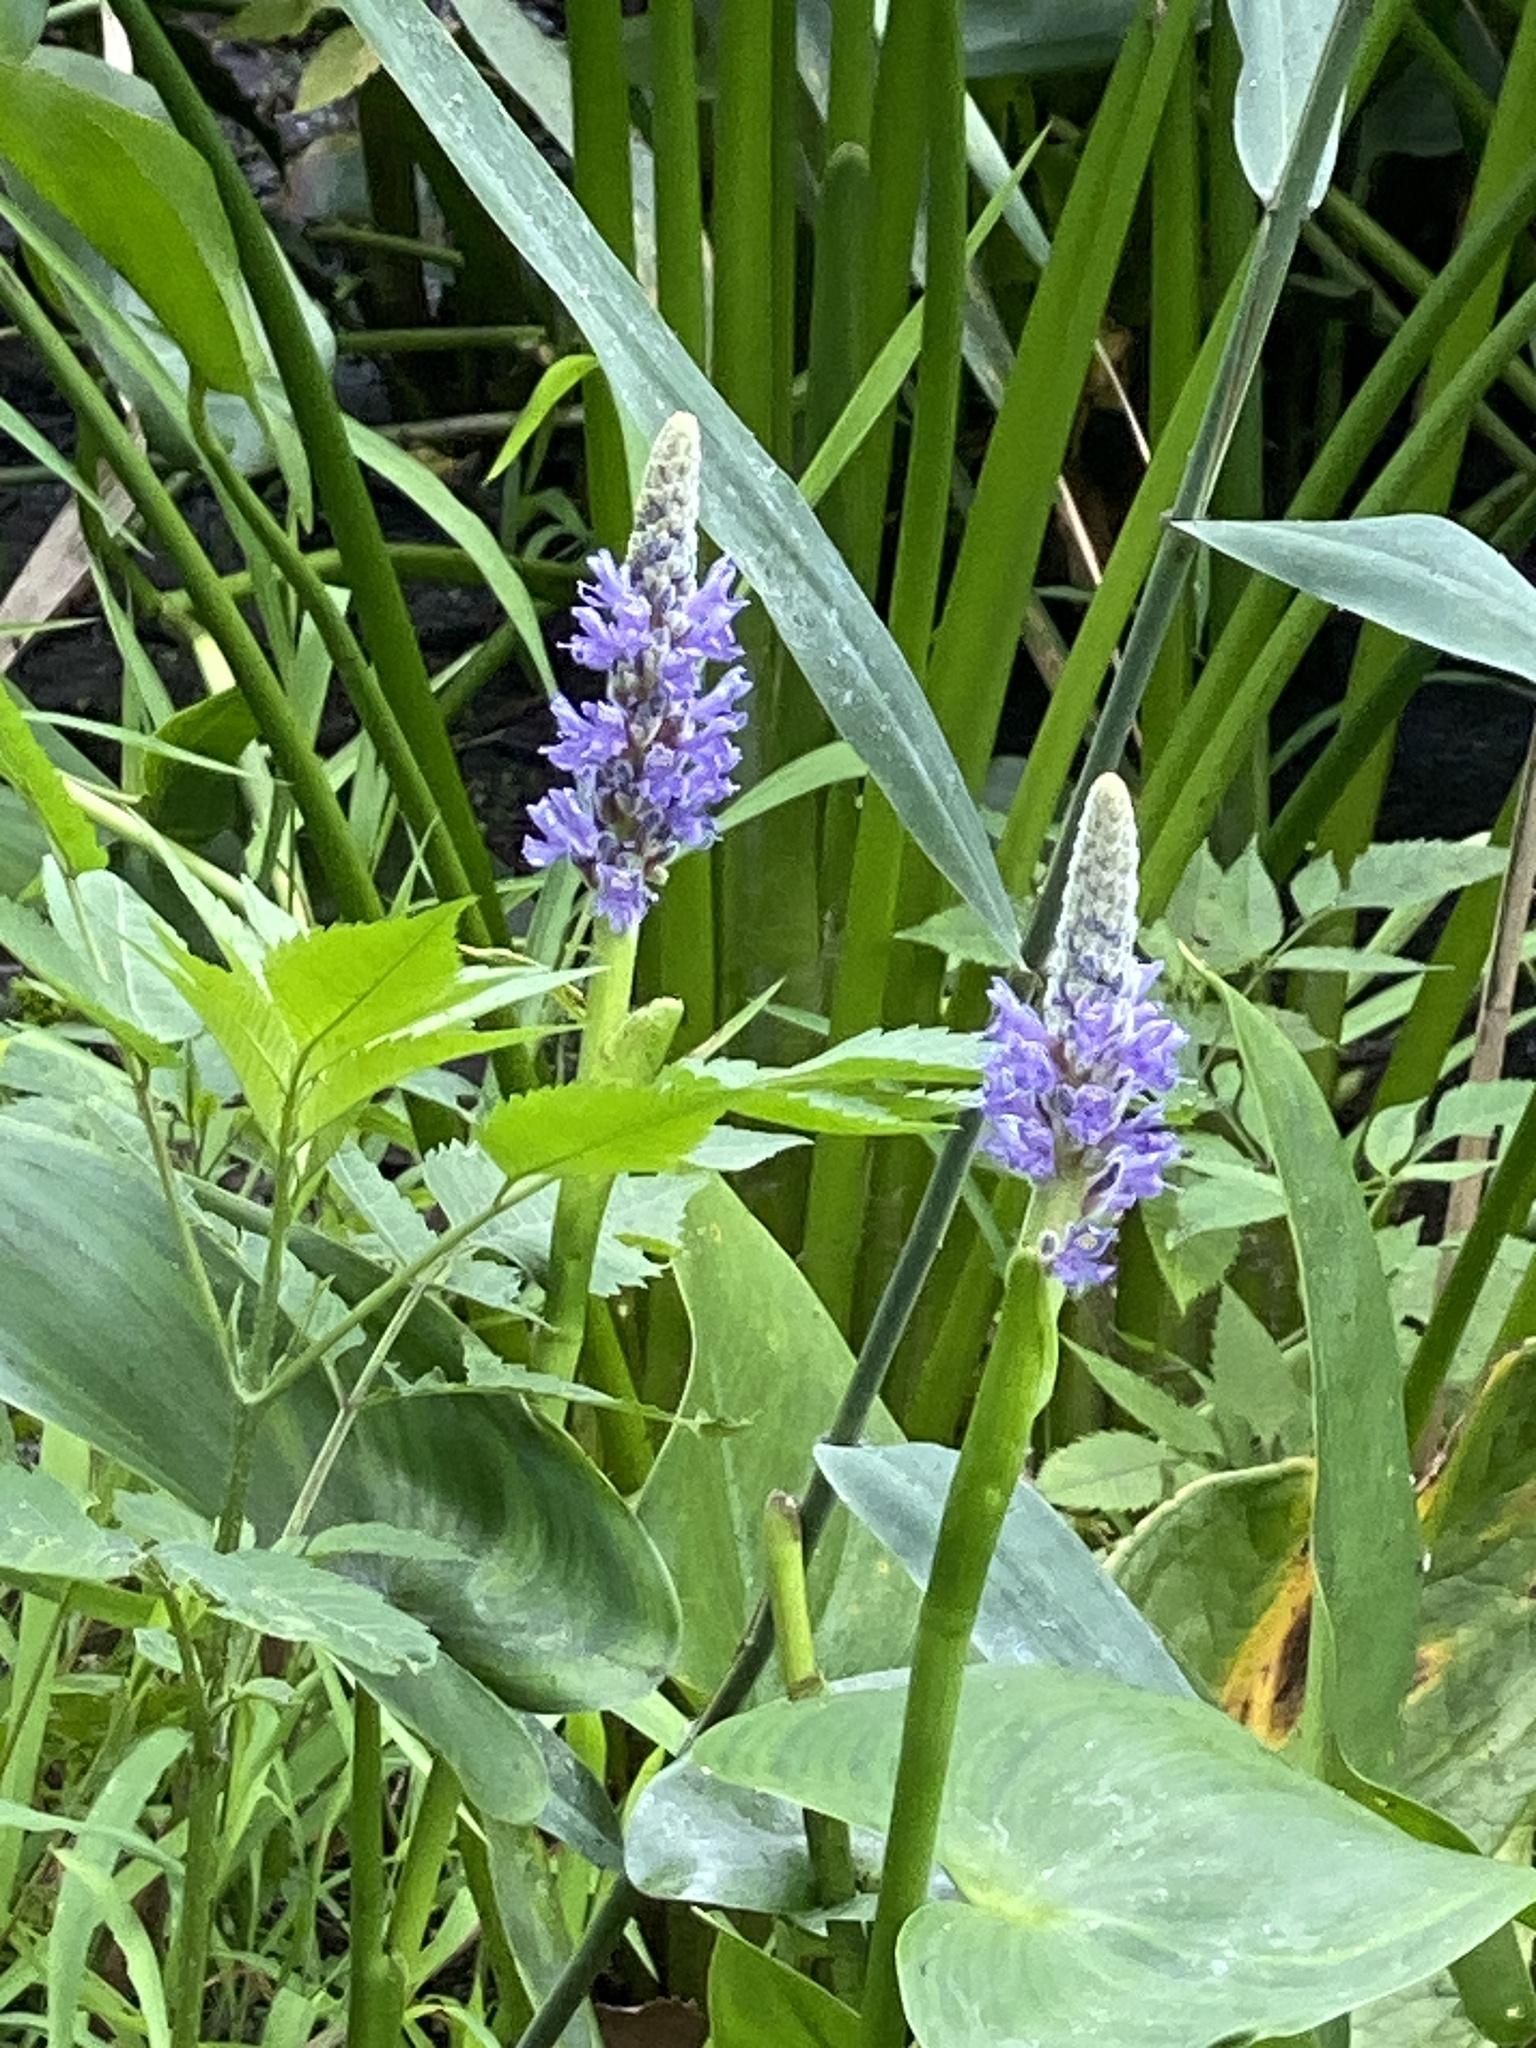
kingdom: Plantae
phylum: Tracheophyta
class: Liliopsida
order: Commelinales
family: Pontederiaceae
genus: Pontederia
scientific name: Pontederia cordata
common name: Pickerelweed
